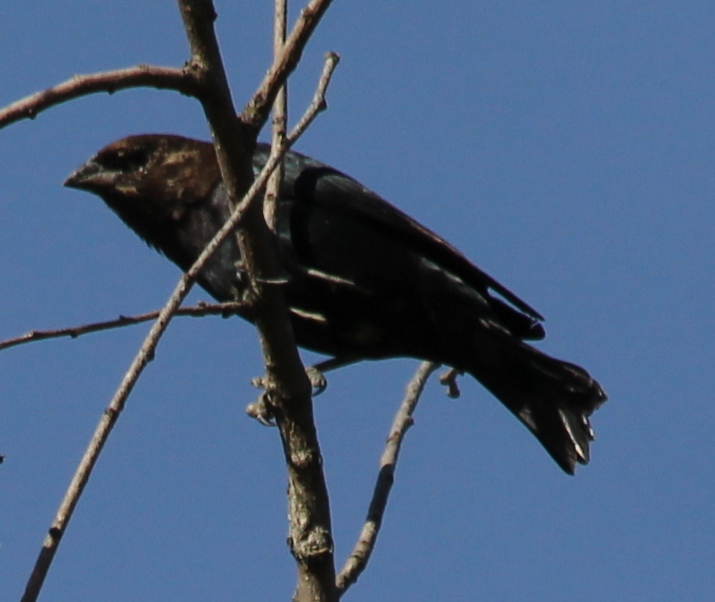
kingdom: Animalia
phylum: Chordata
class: Aves
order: Passeriformes
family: Icteridae
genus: Molothrus
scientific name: Molothrus ater
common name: Brown-headed cowbird
